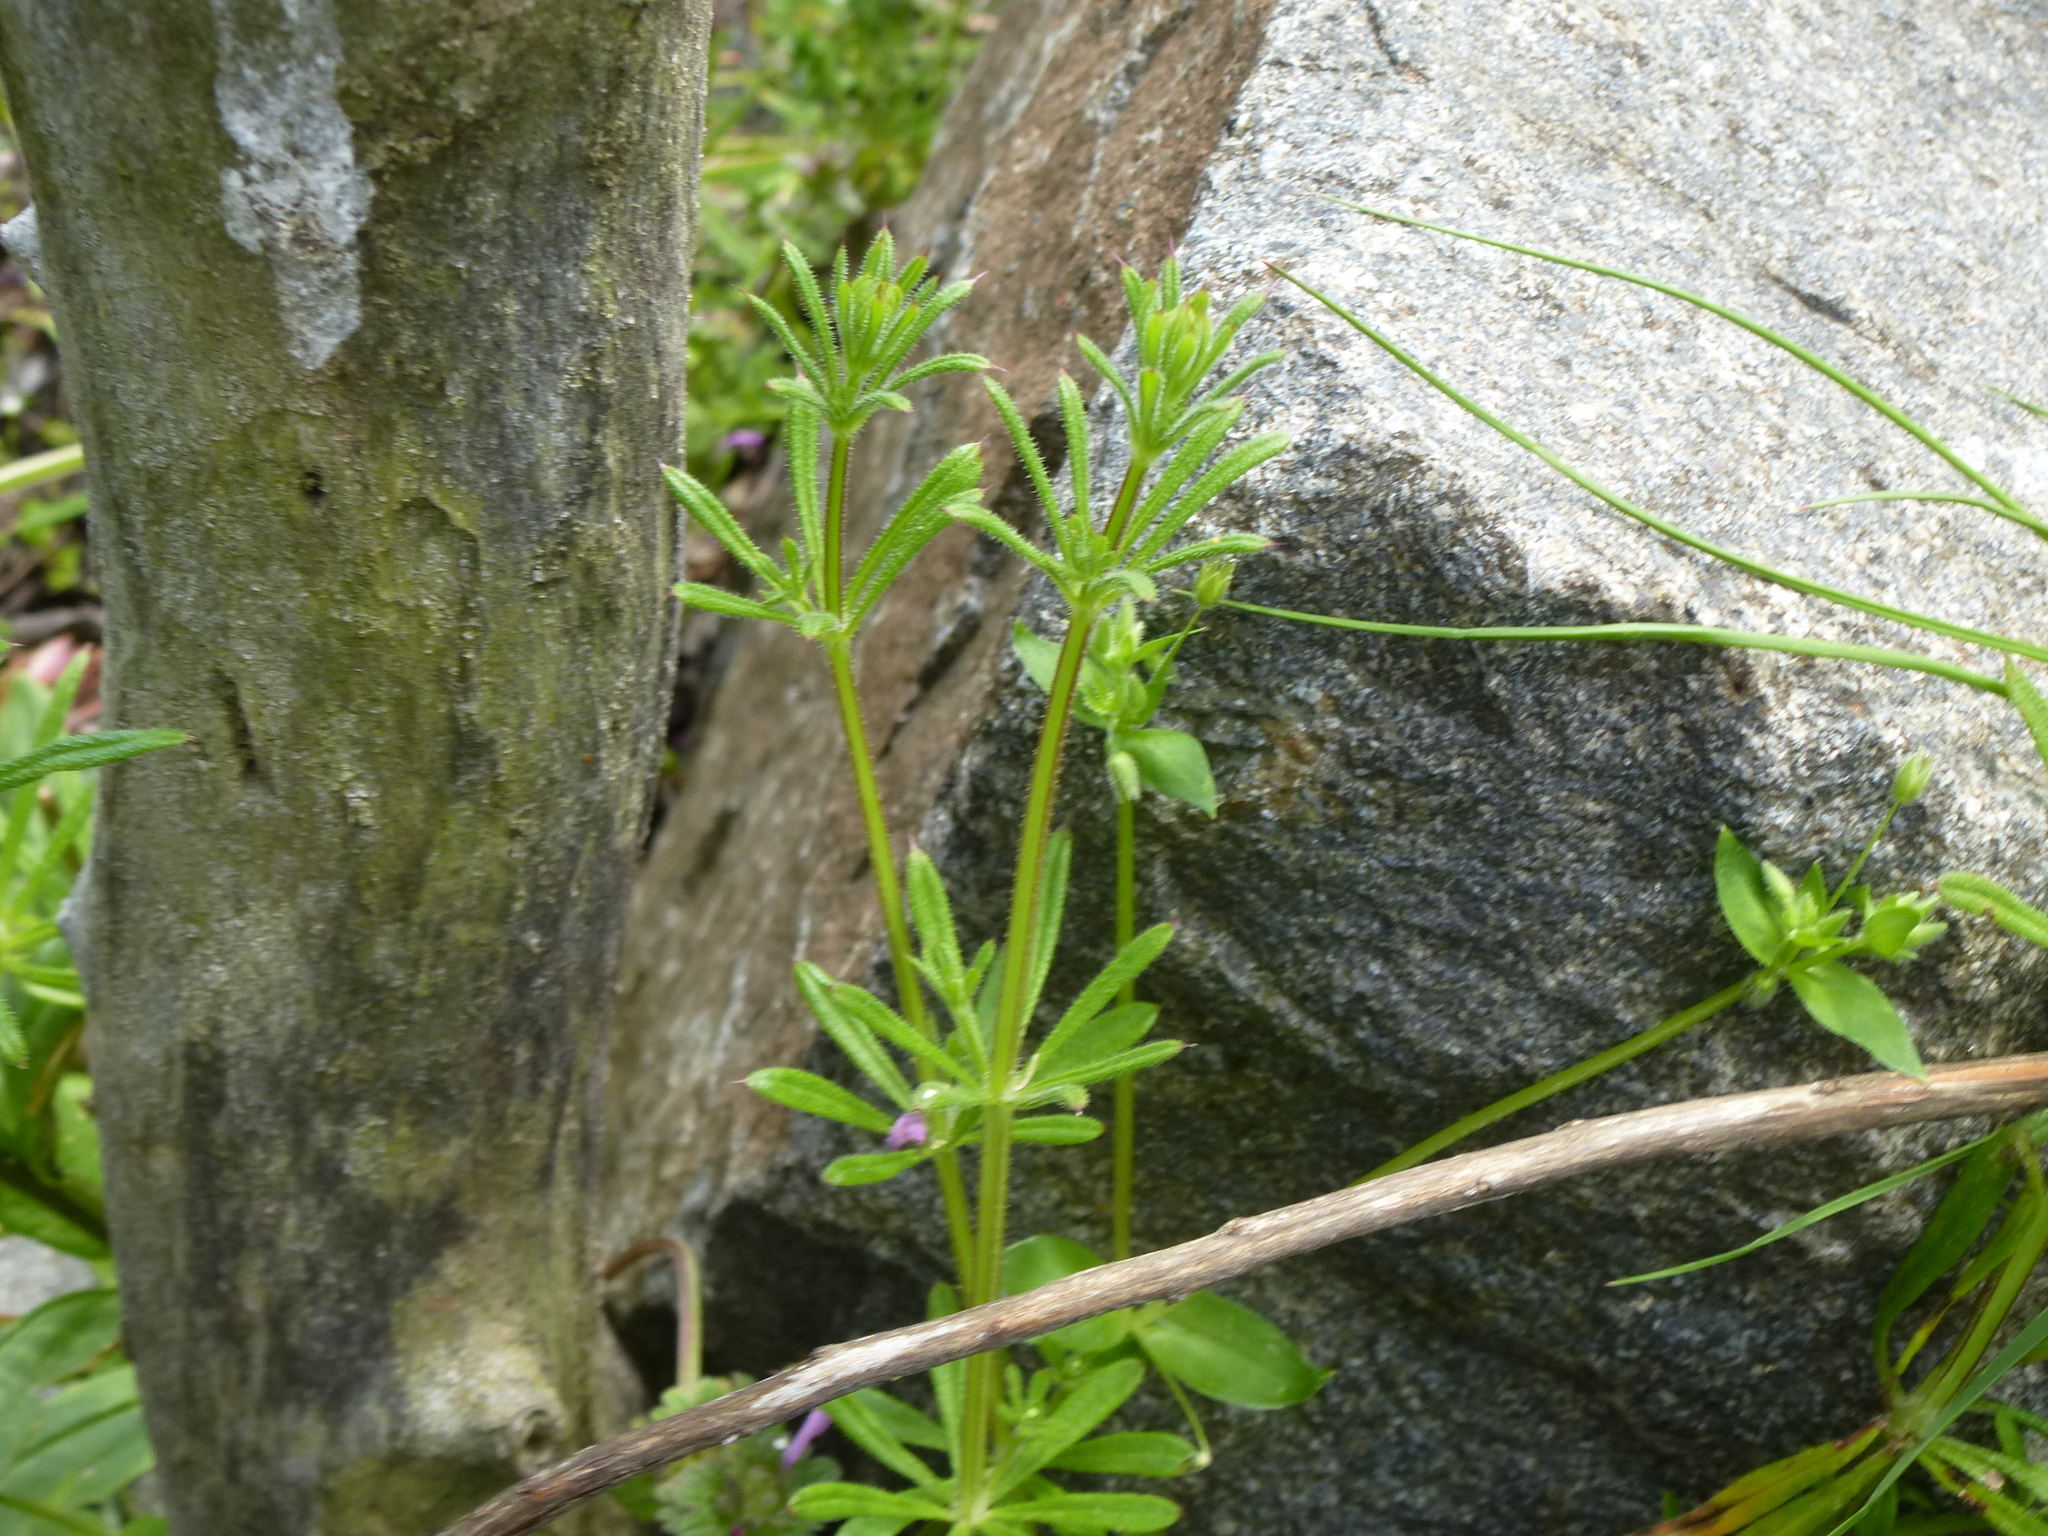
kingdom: Plantae
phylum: Tracheophyta
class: Magnoliopsida
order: Gentianales
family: Rubiaceae
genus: Galium
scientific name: Galium aparine
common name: Cleavers
